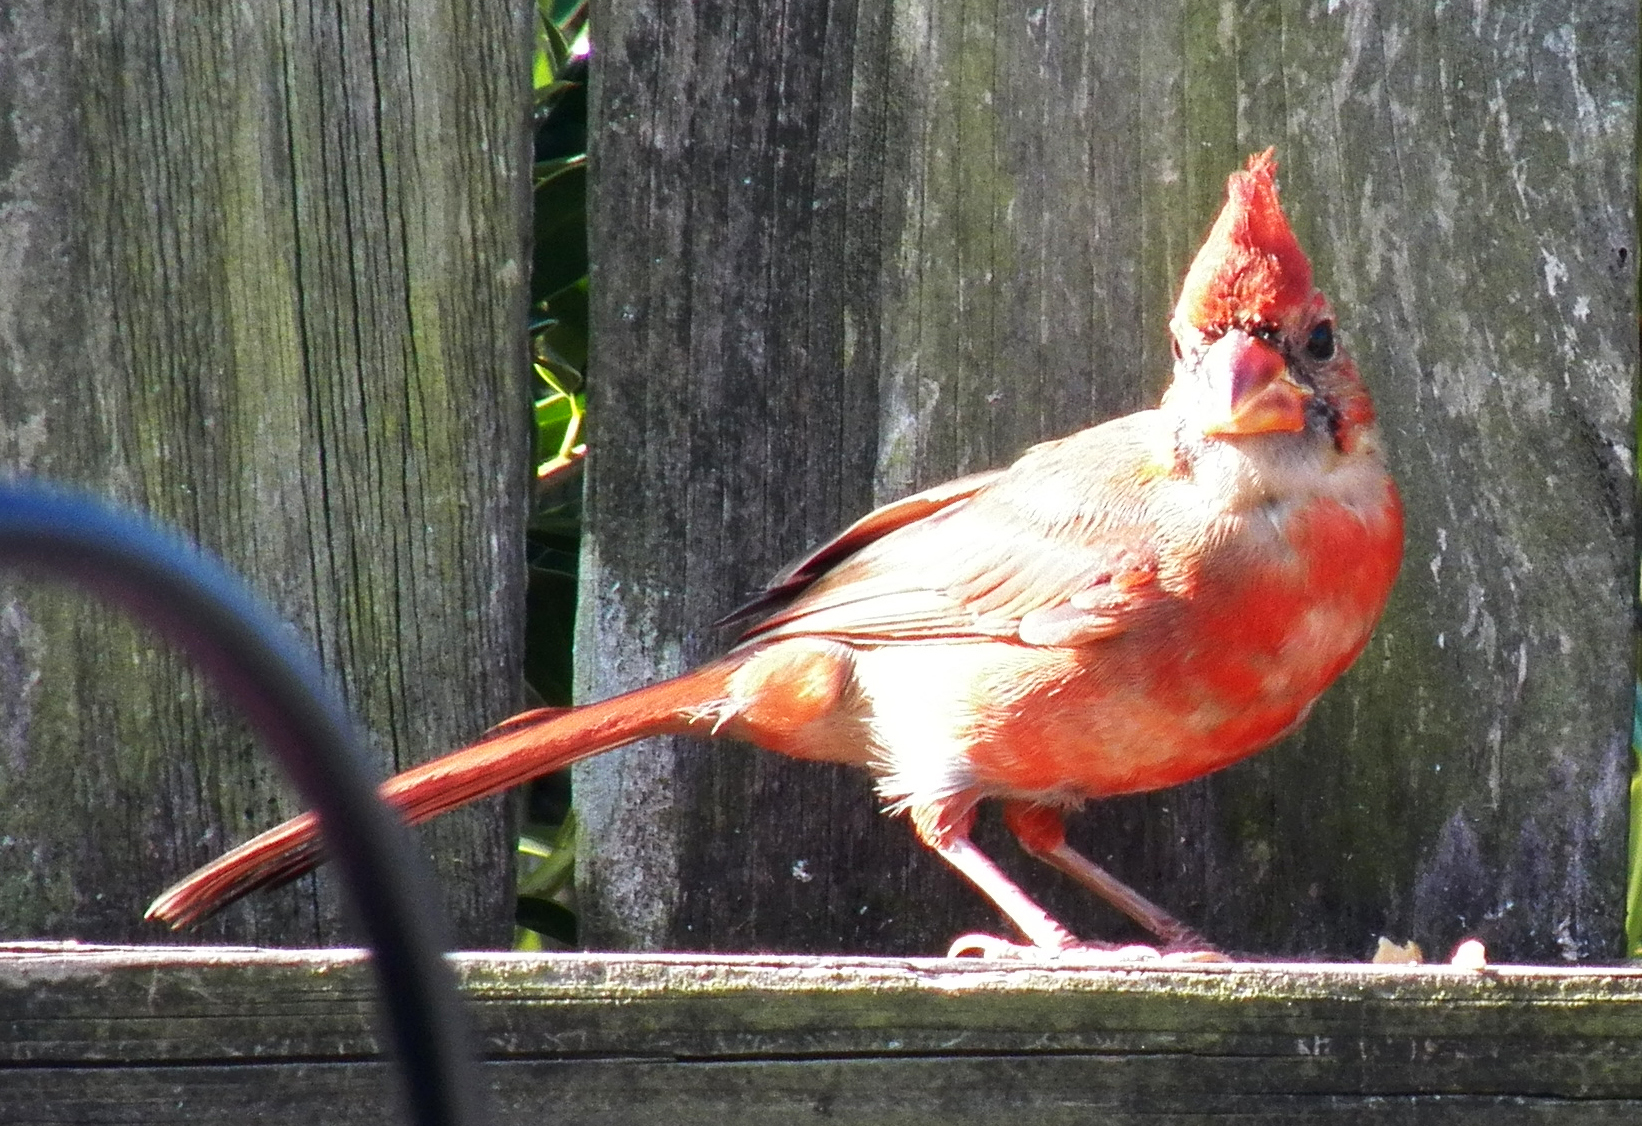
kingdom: Animalia
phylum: Chordata
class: Aves
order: Passeriformes
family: Cardinalidae
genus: Cardinalis
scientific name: Cardinalis cardinalis
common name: Northern cardinal
